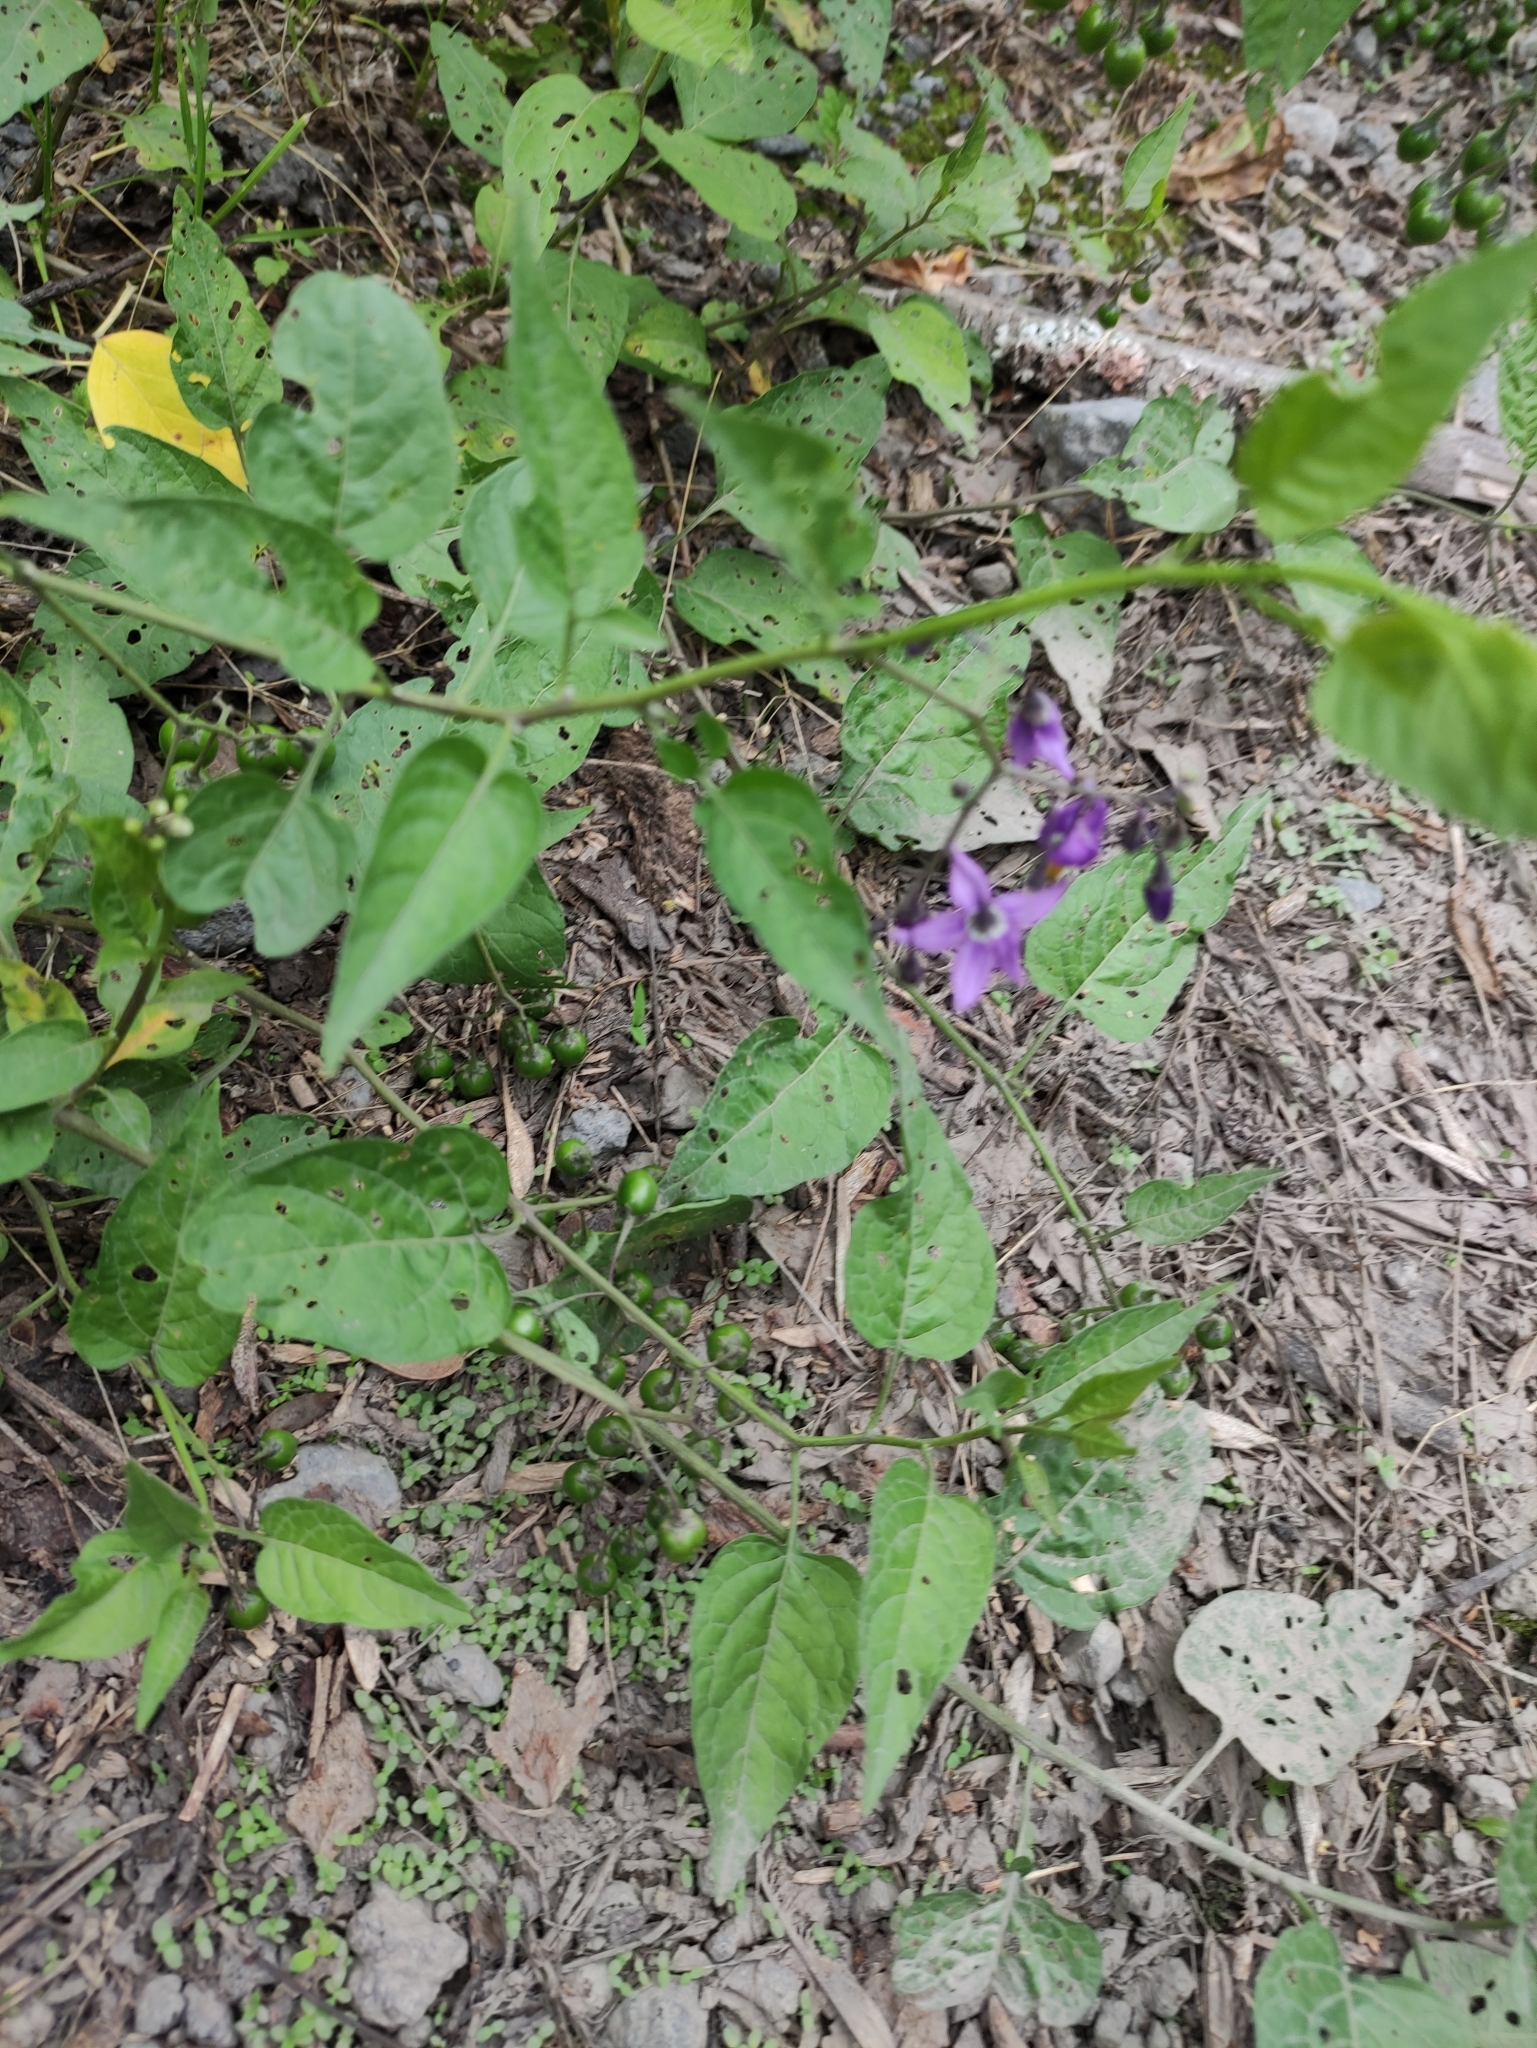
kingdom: Plantae
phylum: Tracheophyta
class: Magnoliopsida
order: Solanales
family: Solanaceae
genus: Solanum
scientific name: Solanum dulcamara
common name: Climbing nightshade
